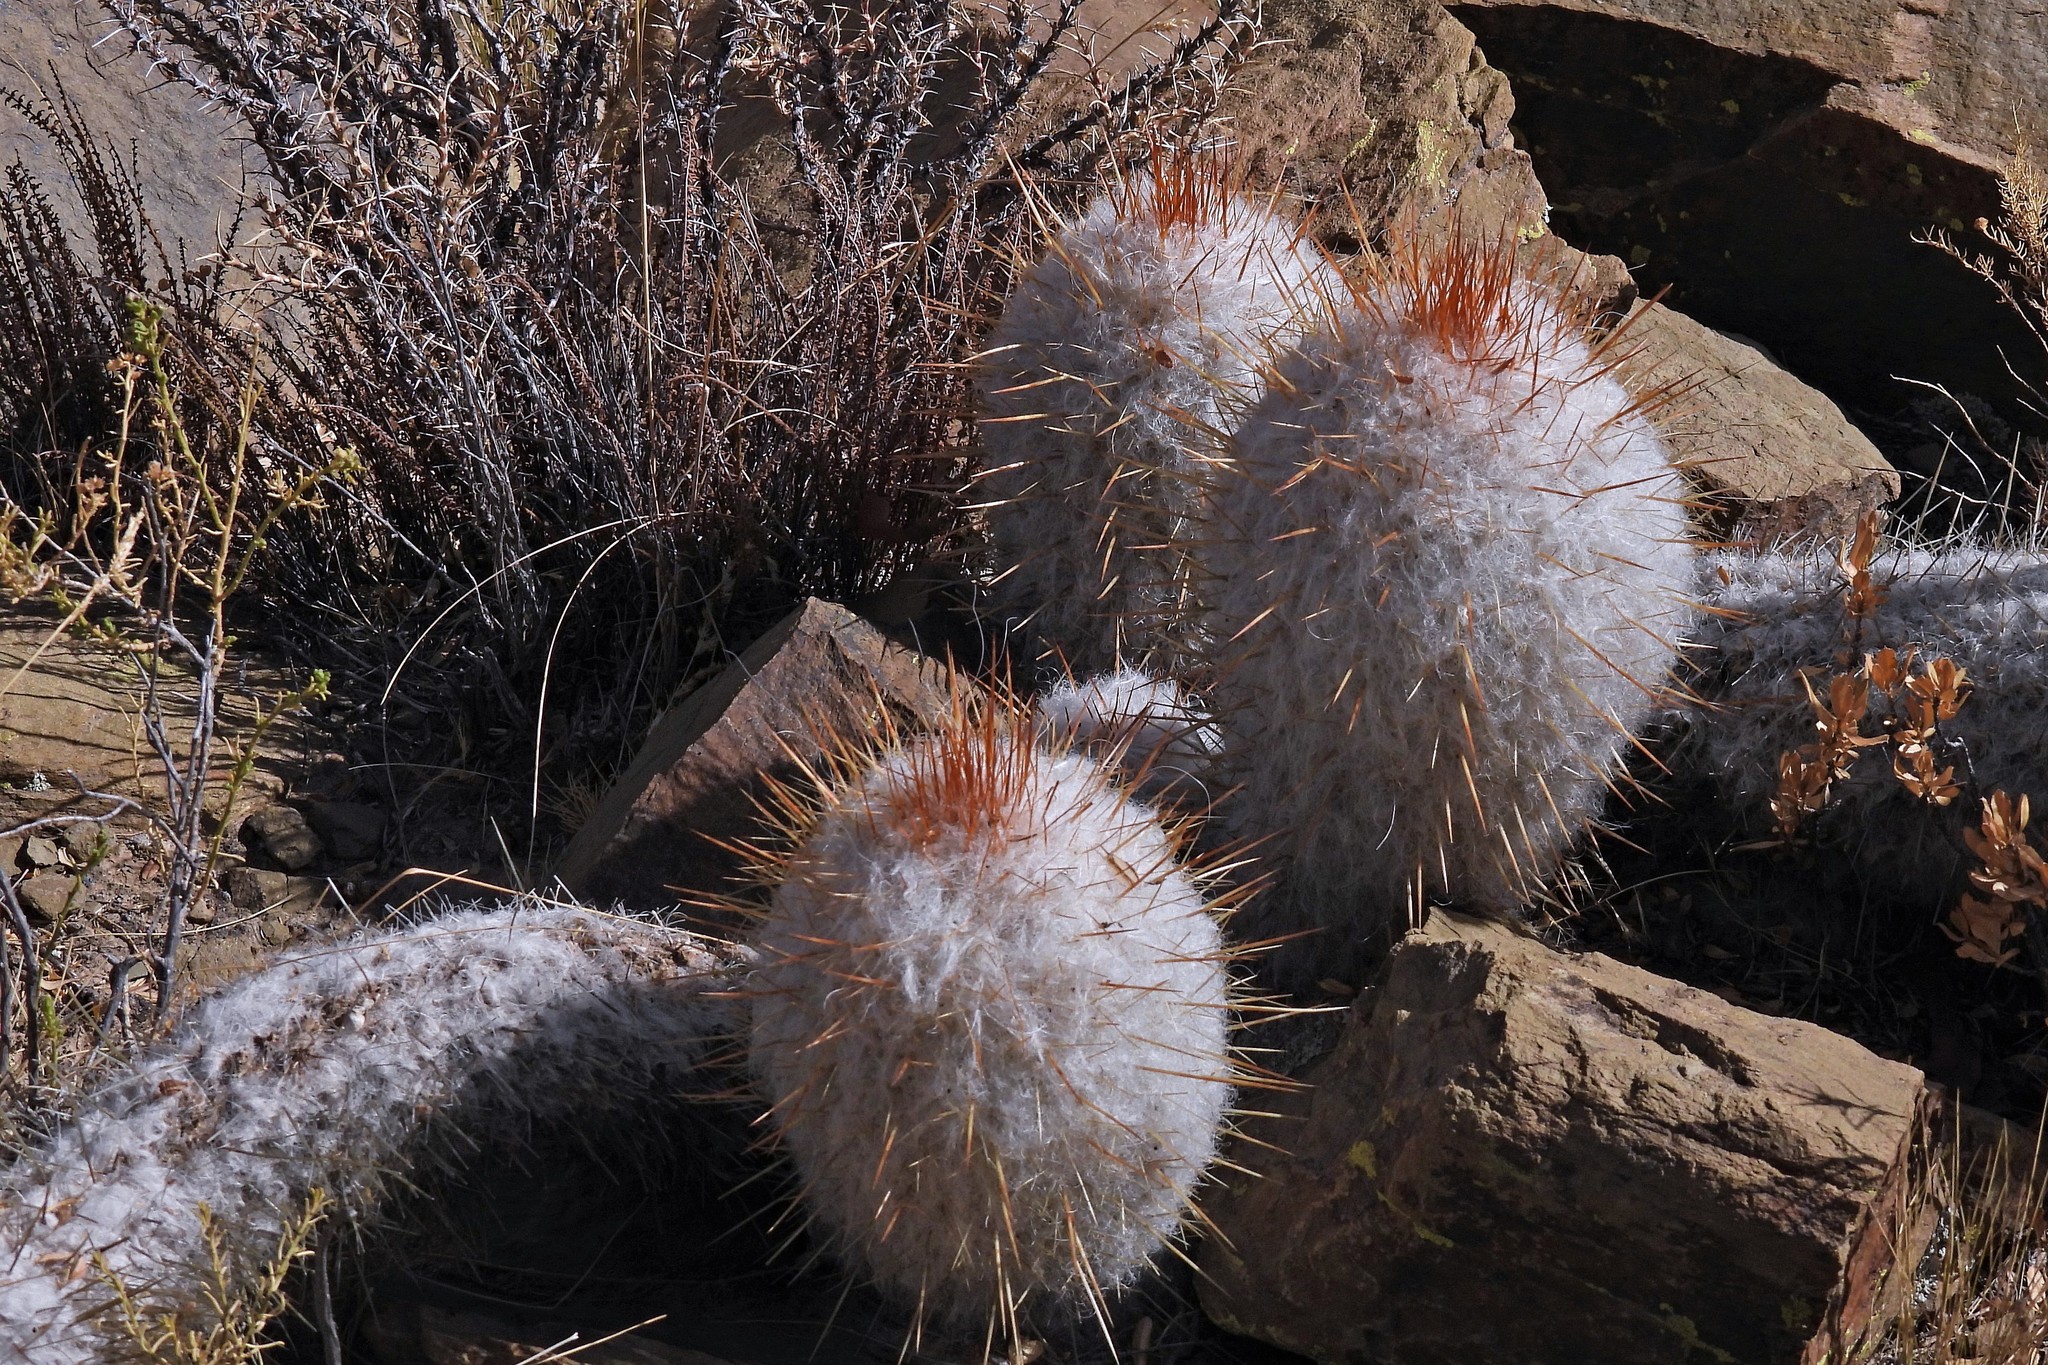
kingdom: Plantae
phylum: Tracheophyta
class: Magnoliopsida
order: Caryophyllales
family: Cactaceae
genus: Oreocereus
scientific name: Oreocereus trollii
